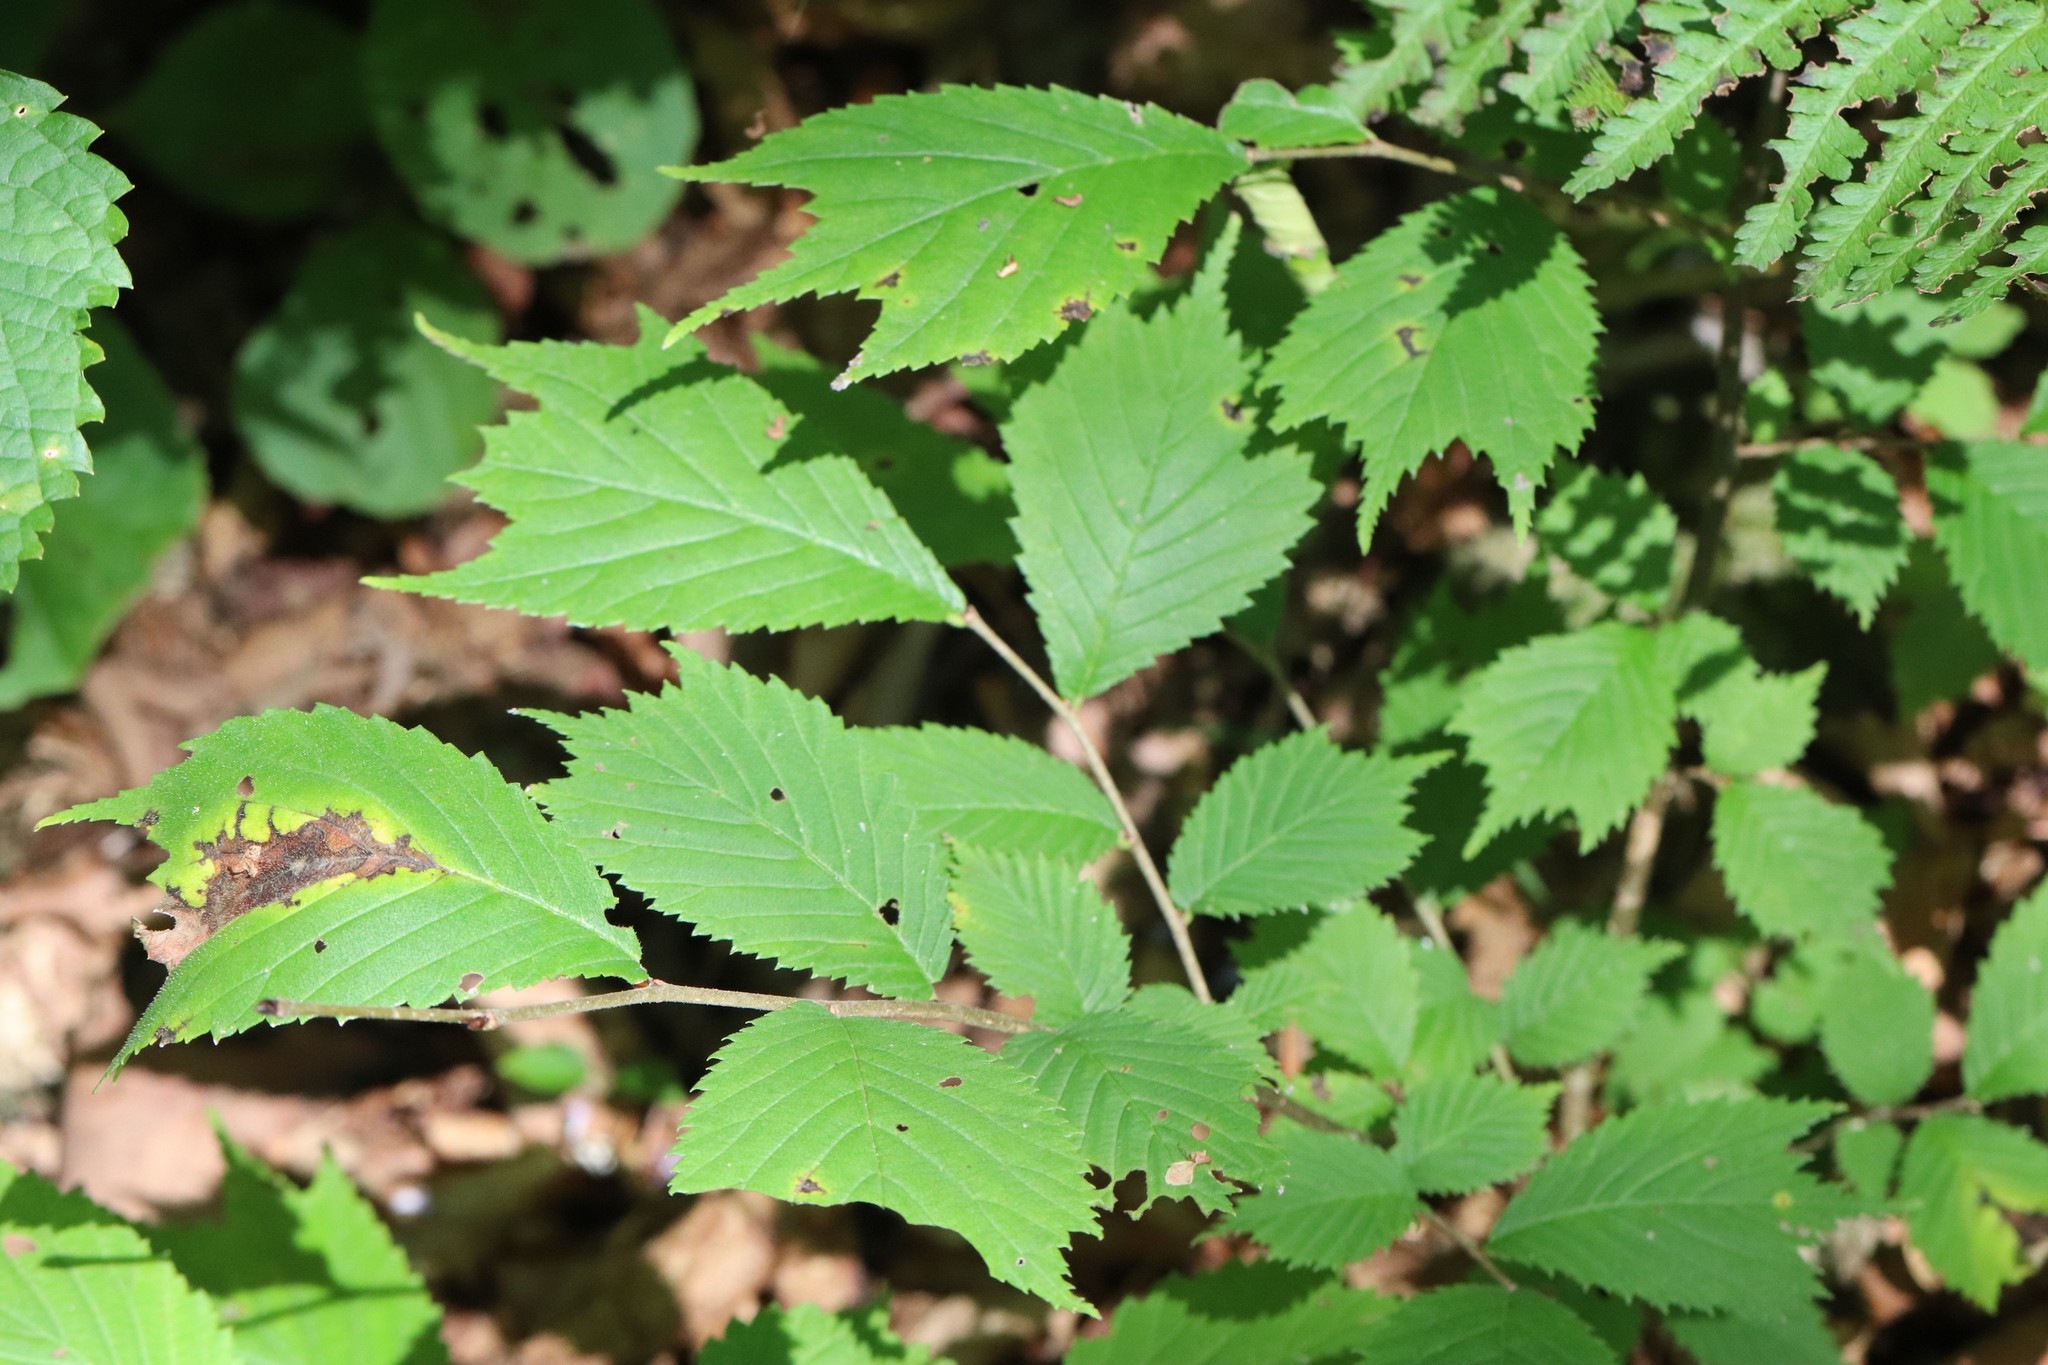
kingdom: Plantae
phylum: Tracheophyta
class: Magnoliopsida
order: Rosales
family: Ulmaceae
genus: Ulmus
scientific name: Ulmus laciniata
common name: Japanese elm
